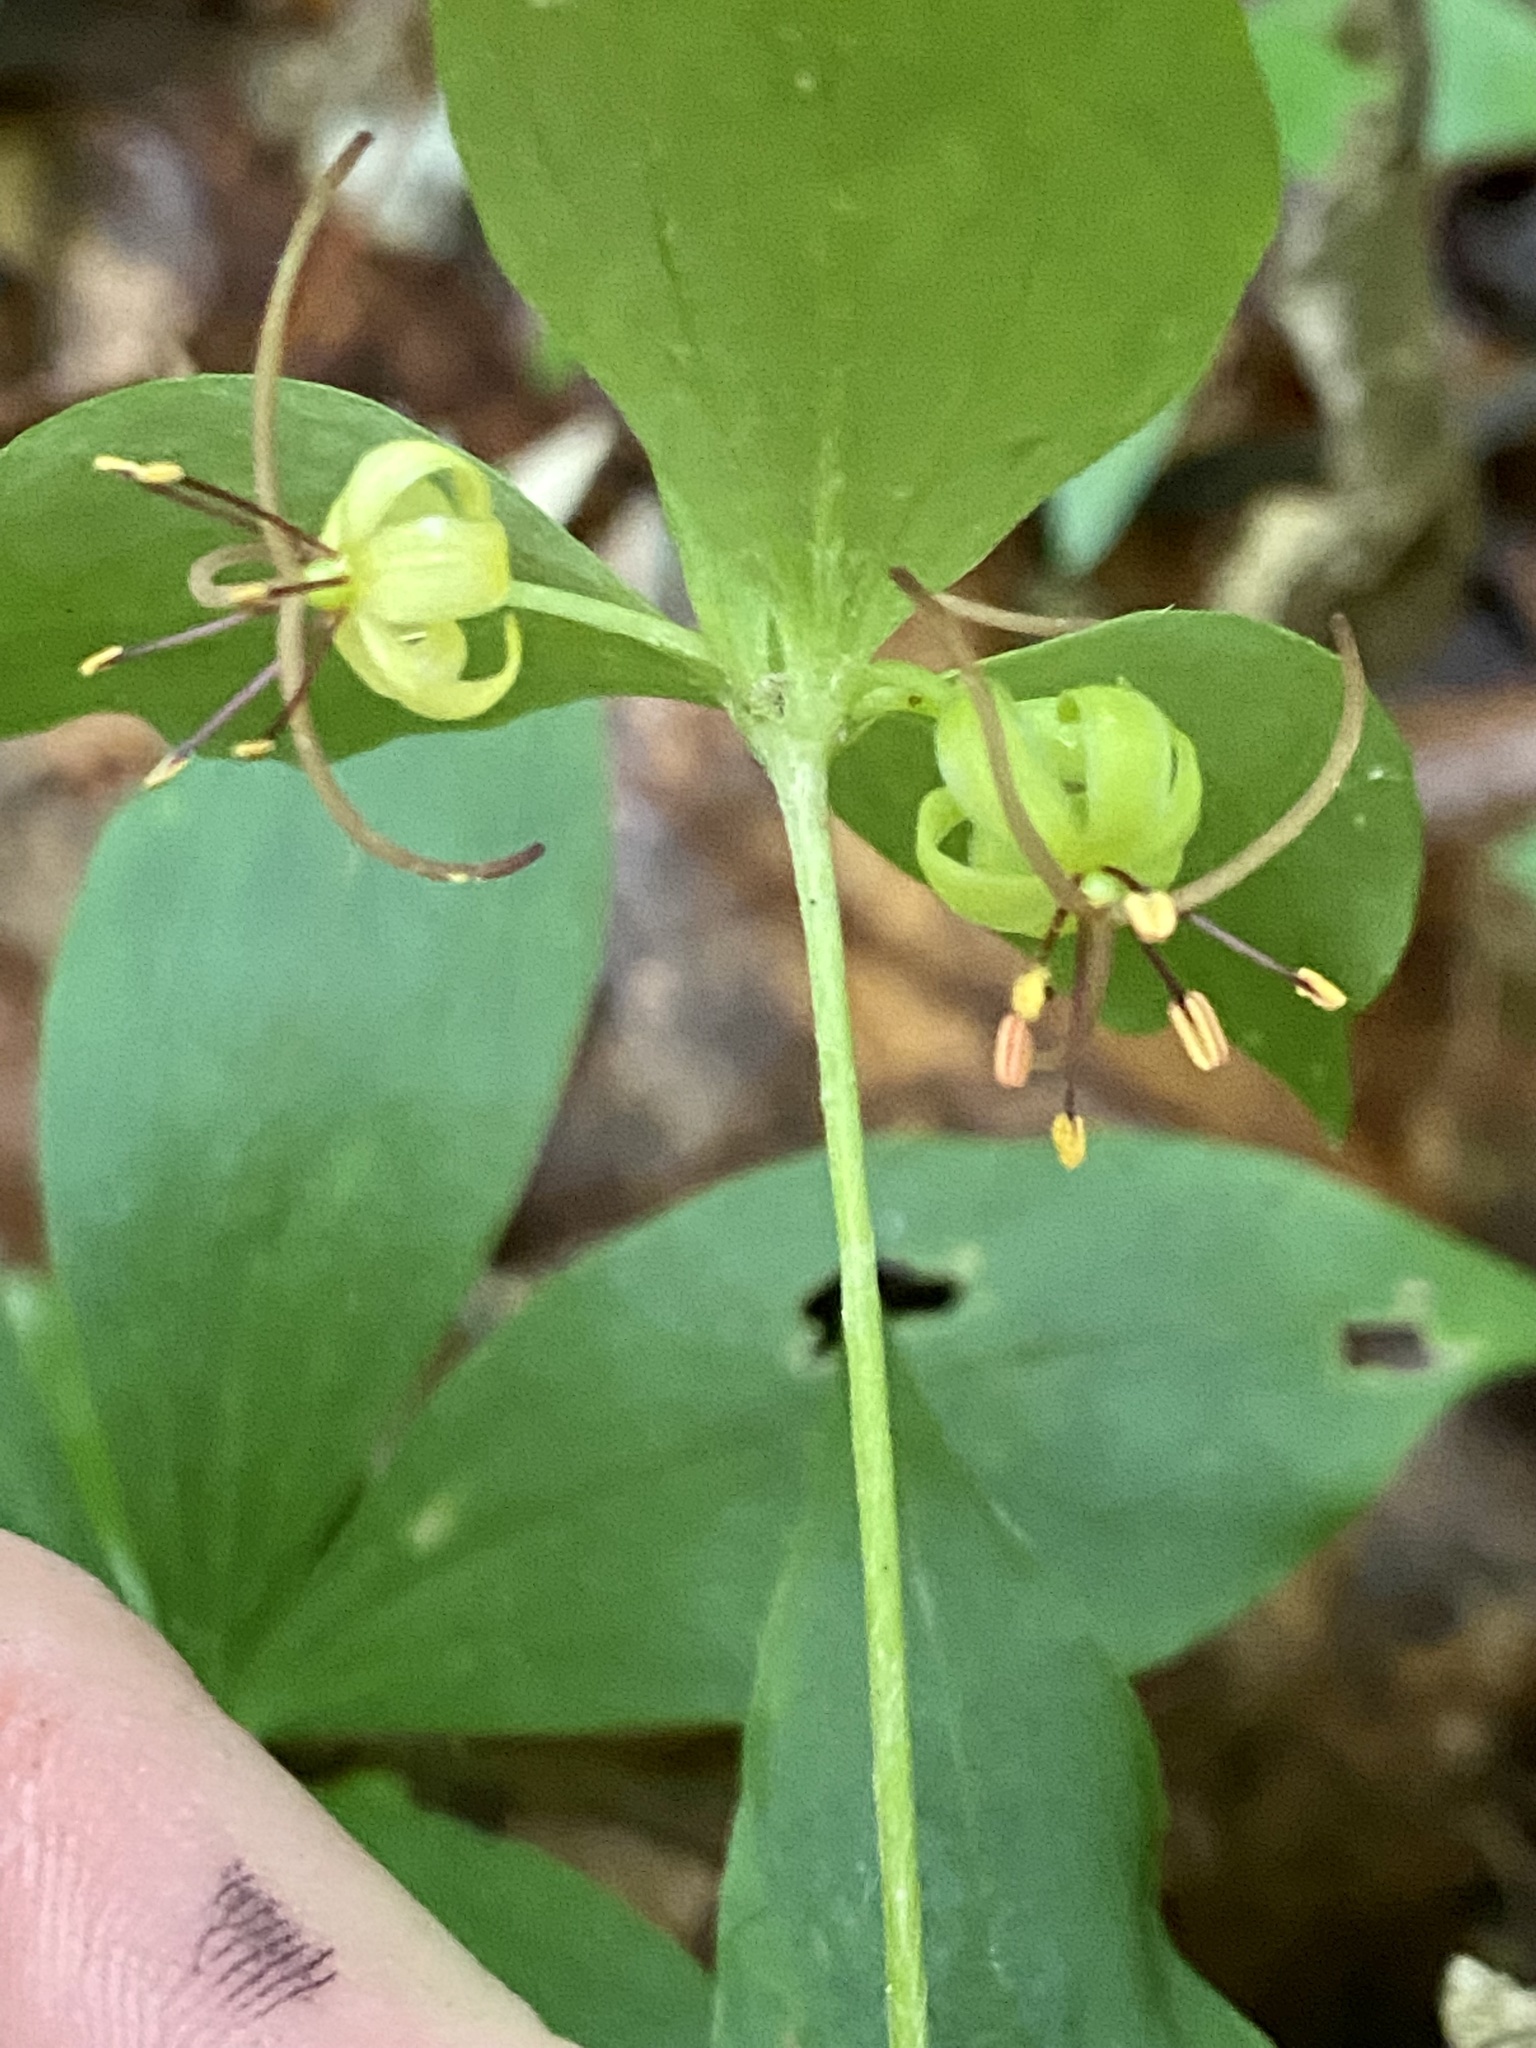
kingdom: Plantae
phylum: Tracheophyta
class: Liliopsida
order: Liliales
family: Liliaceae
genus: Medeola
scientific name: Medeola virginiana
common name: Indian cucumber-root
